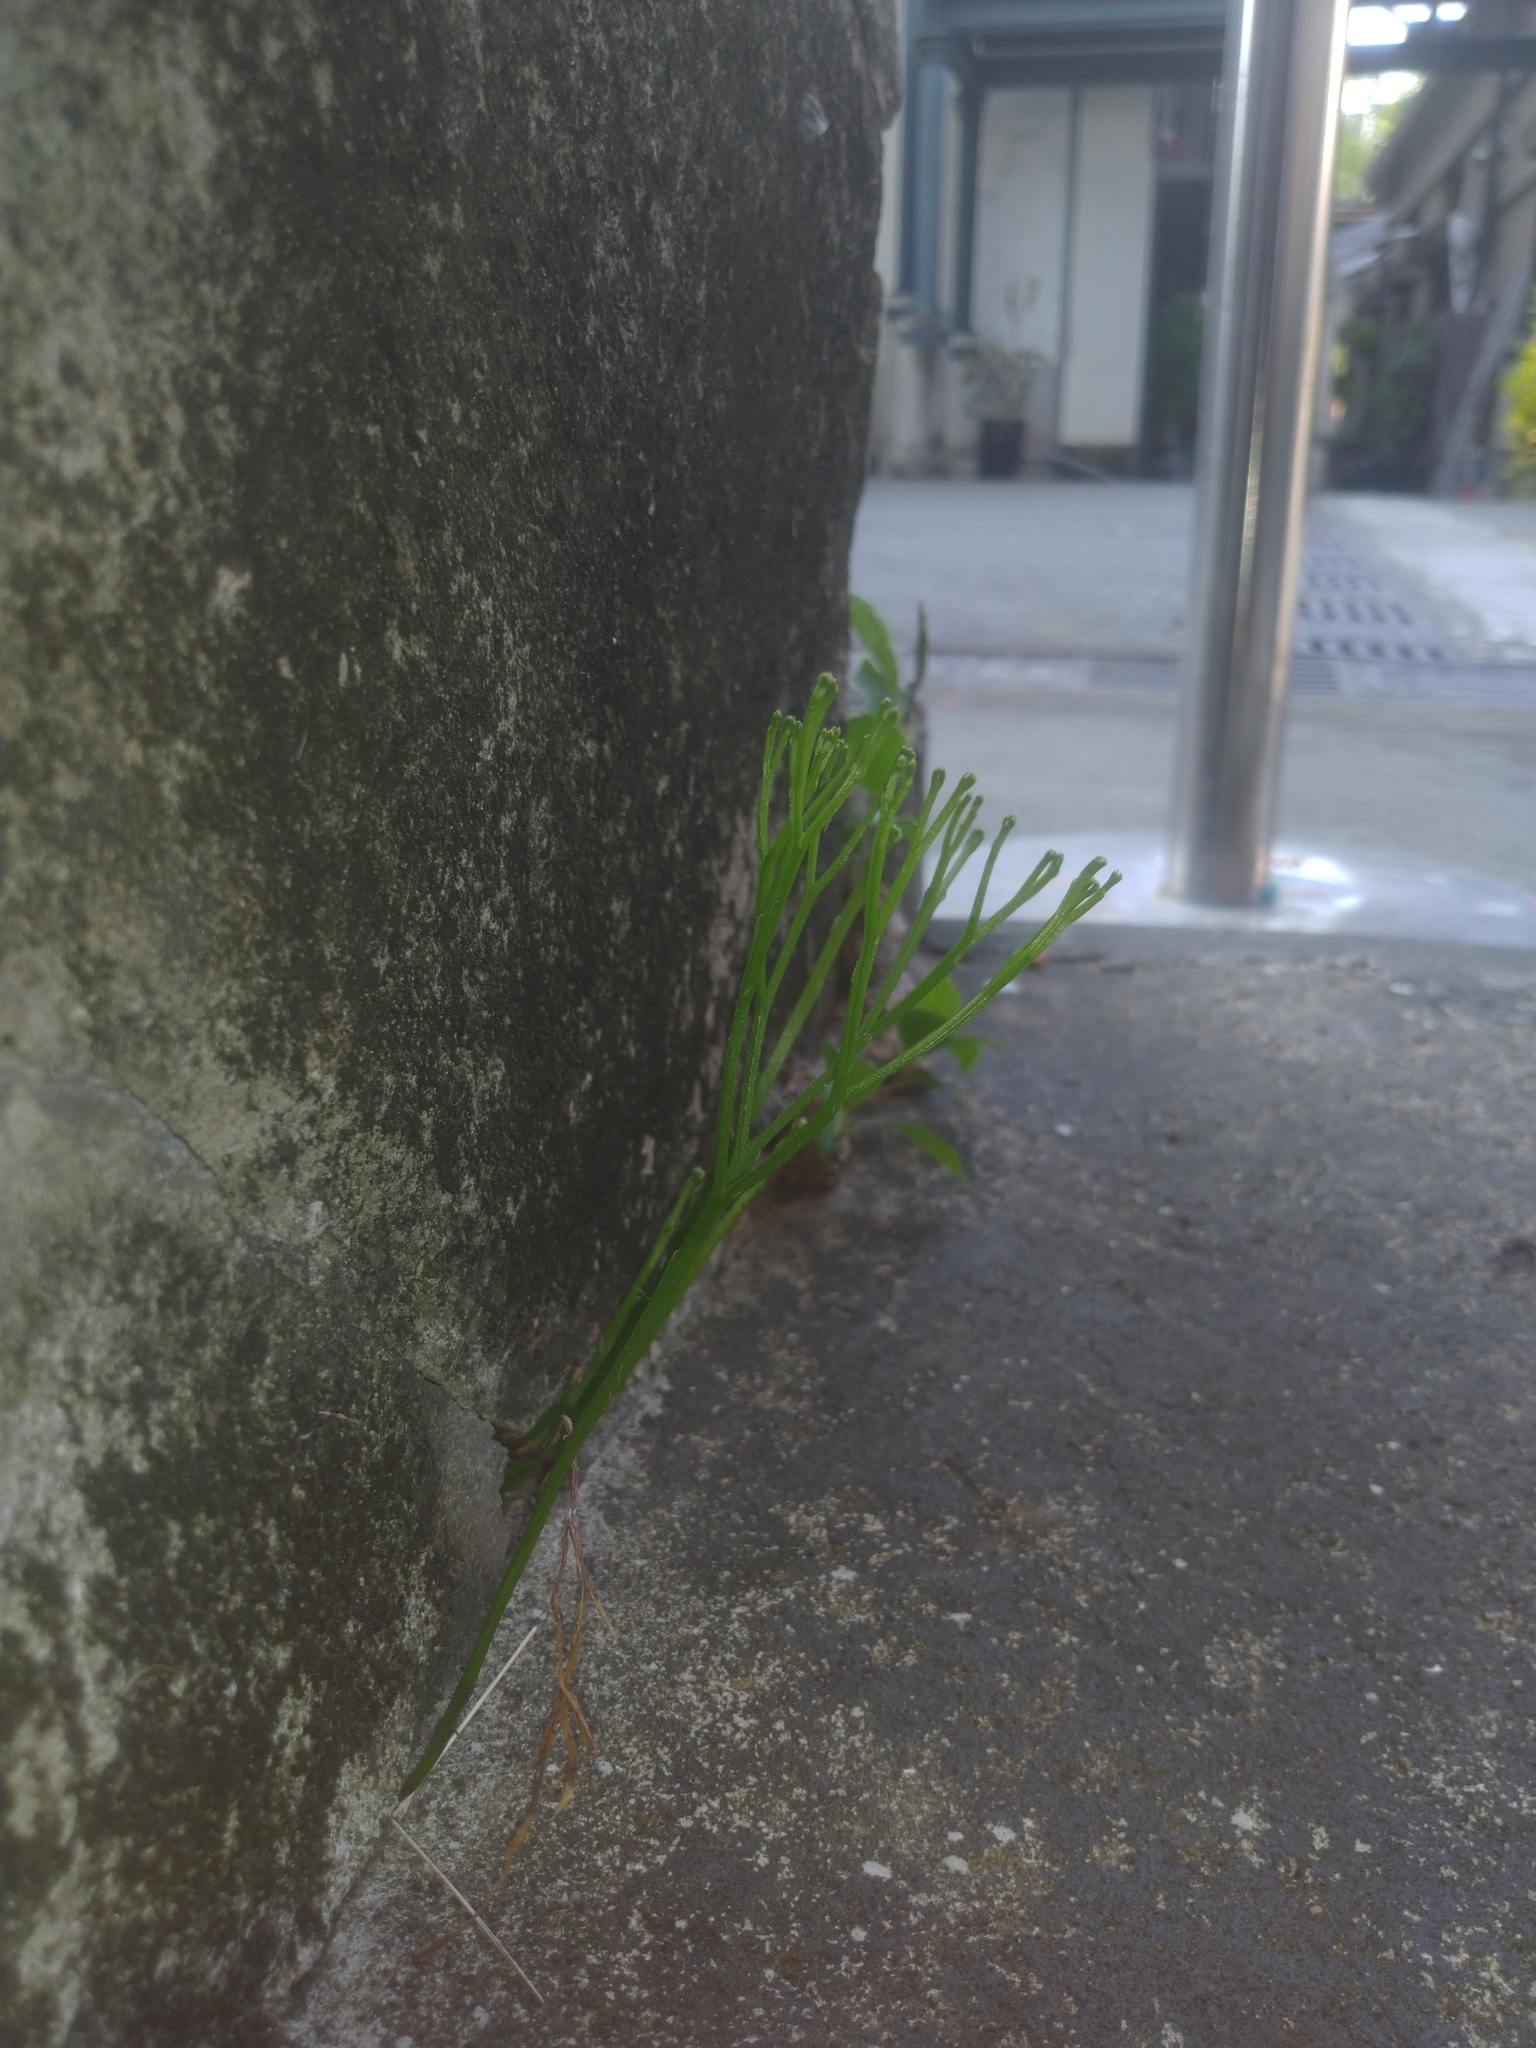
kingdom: Plantae
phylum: Tracheophyta
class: Polypodiopsida
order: Psilotales
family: Psilotaceae
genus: Psilotum
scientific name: Psilotum nudum
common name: Skeleton fork fern
